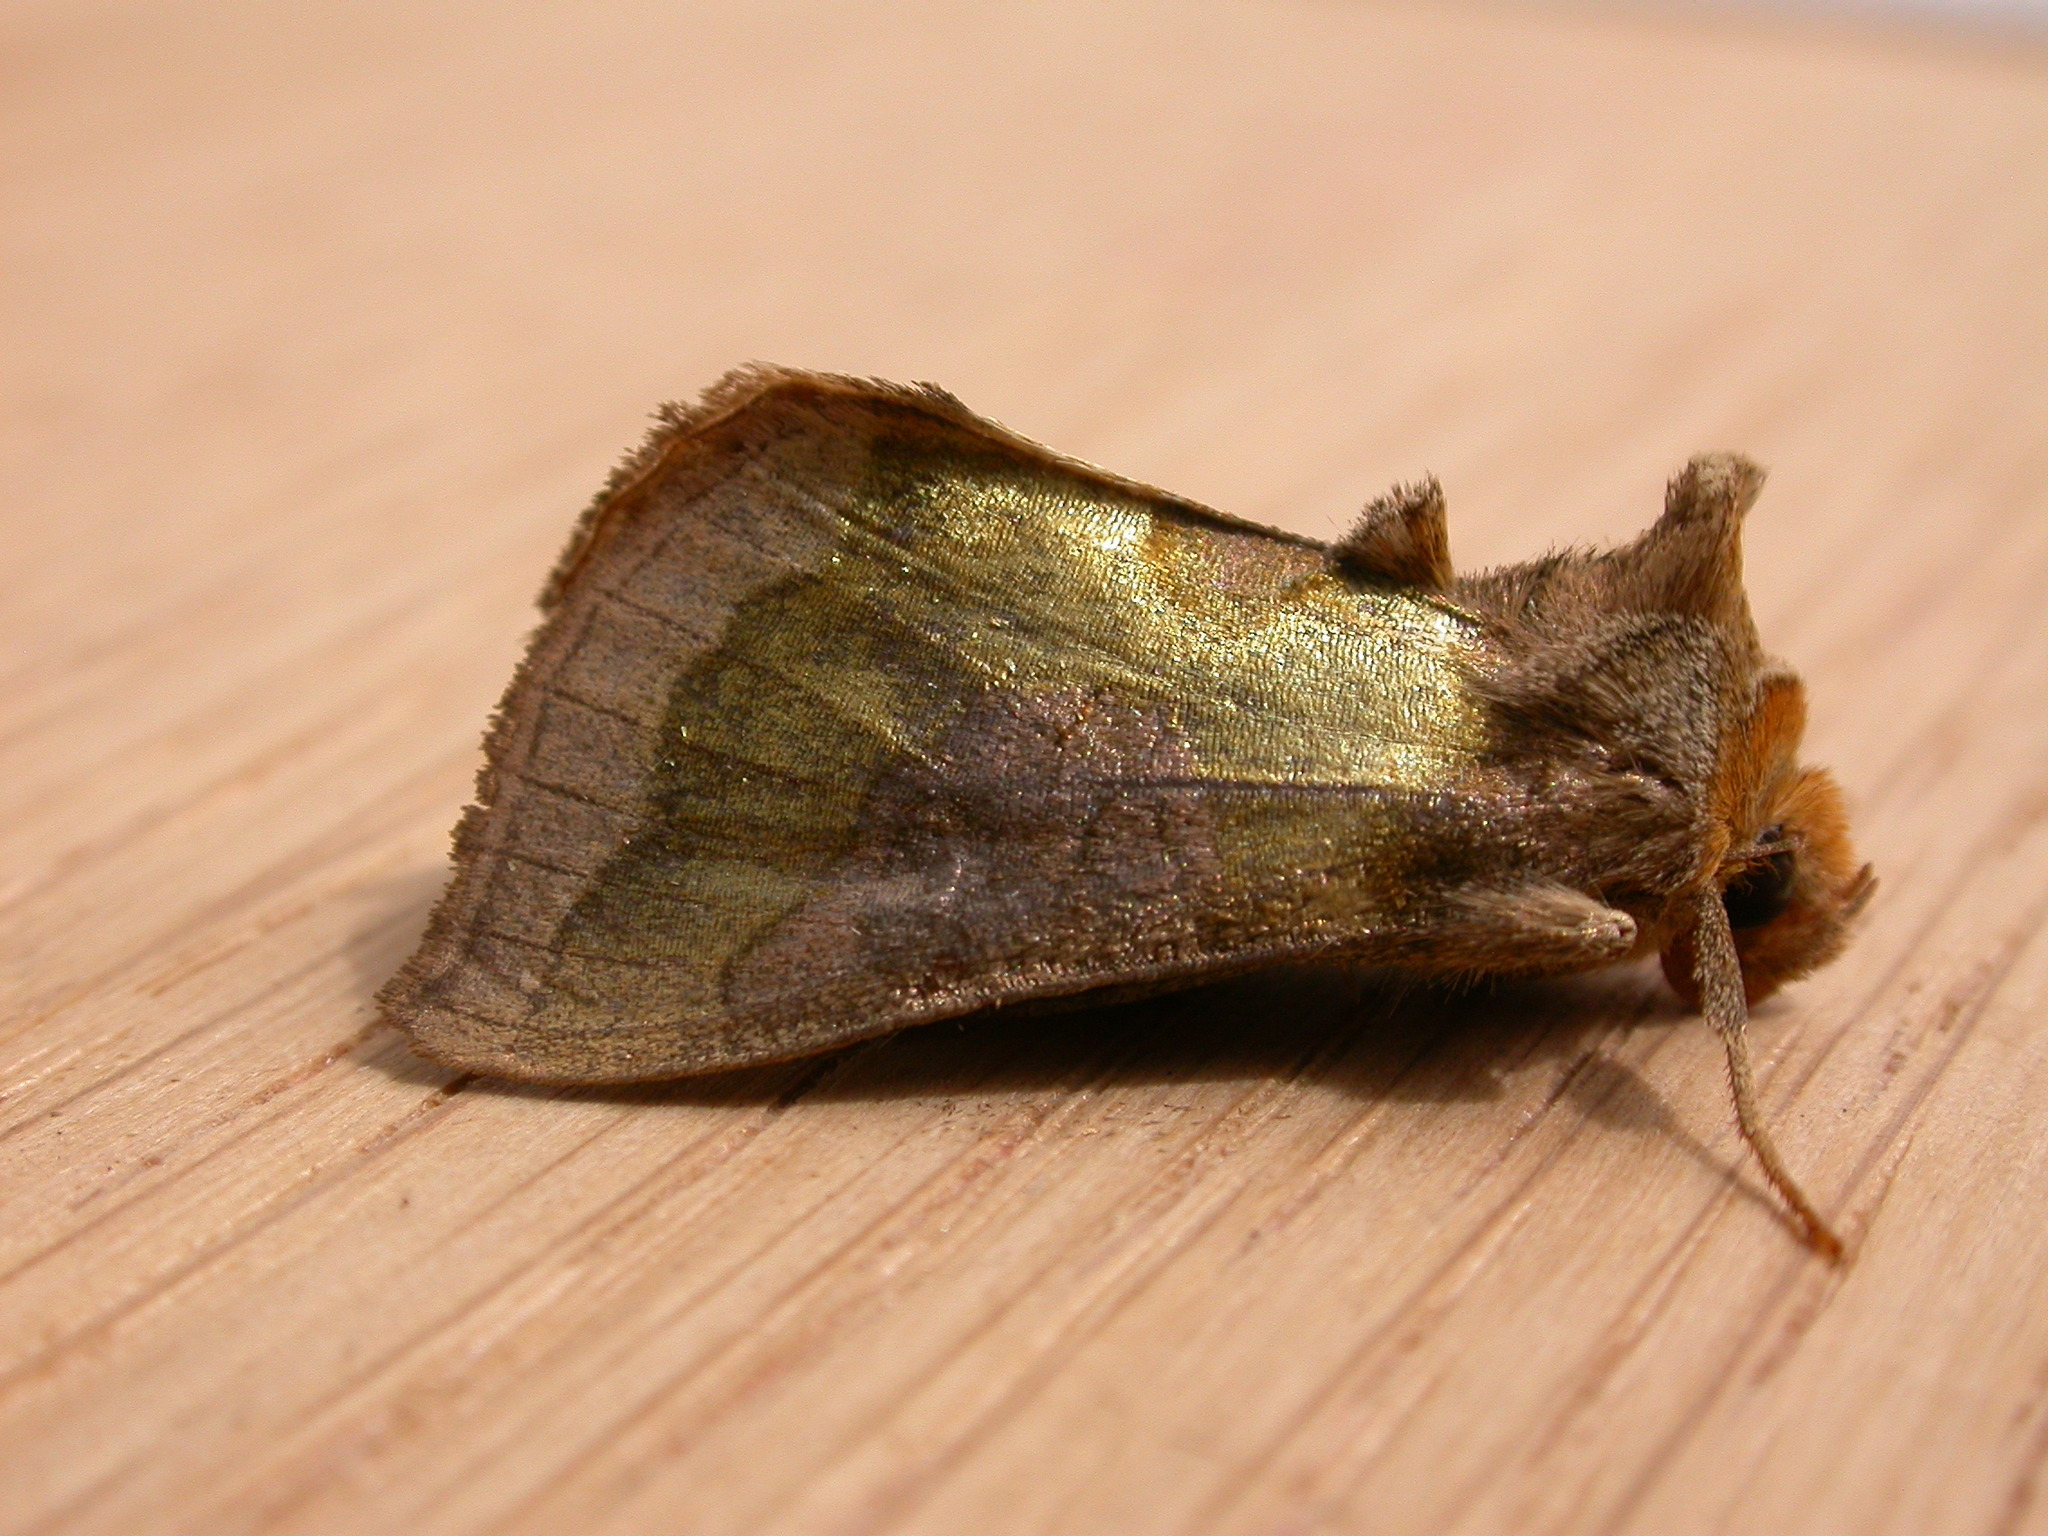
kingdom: Animalia
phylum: Arthropoda
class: Insecta
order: Lepidoptera
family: Noctuidae
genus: Diachrysia
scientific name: Diachrysia stenochrysis
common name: Cryptic burnished brass
